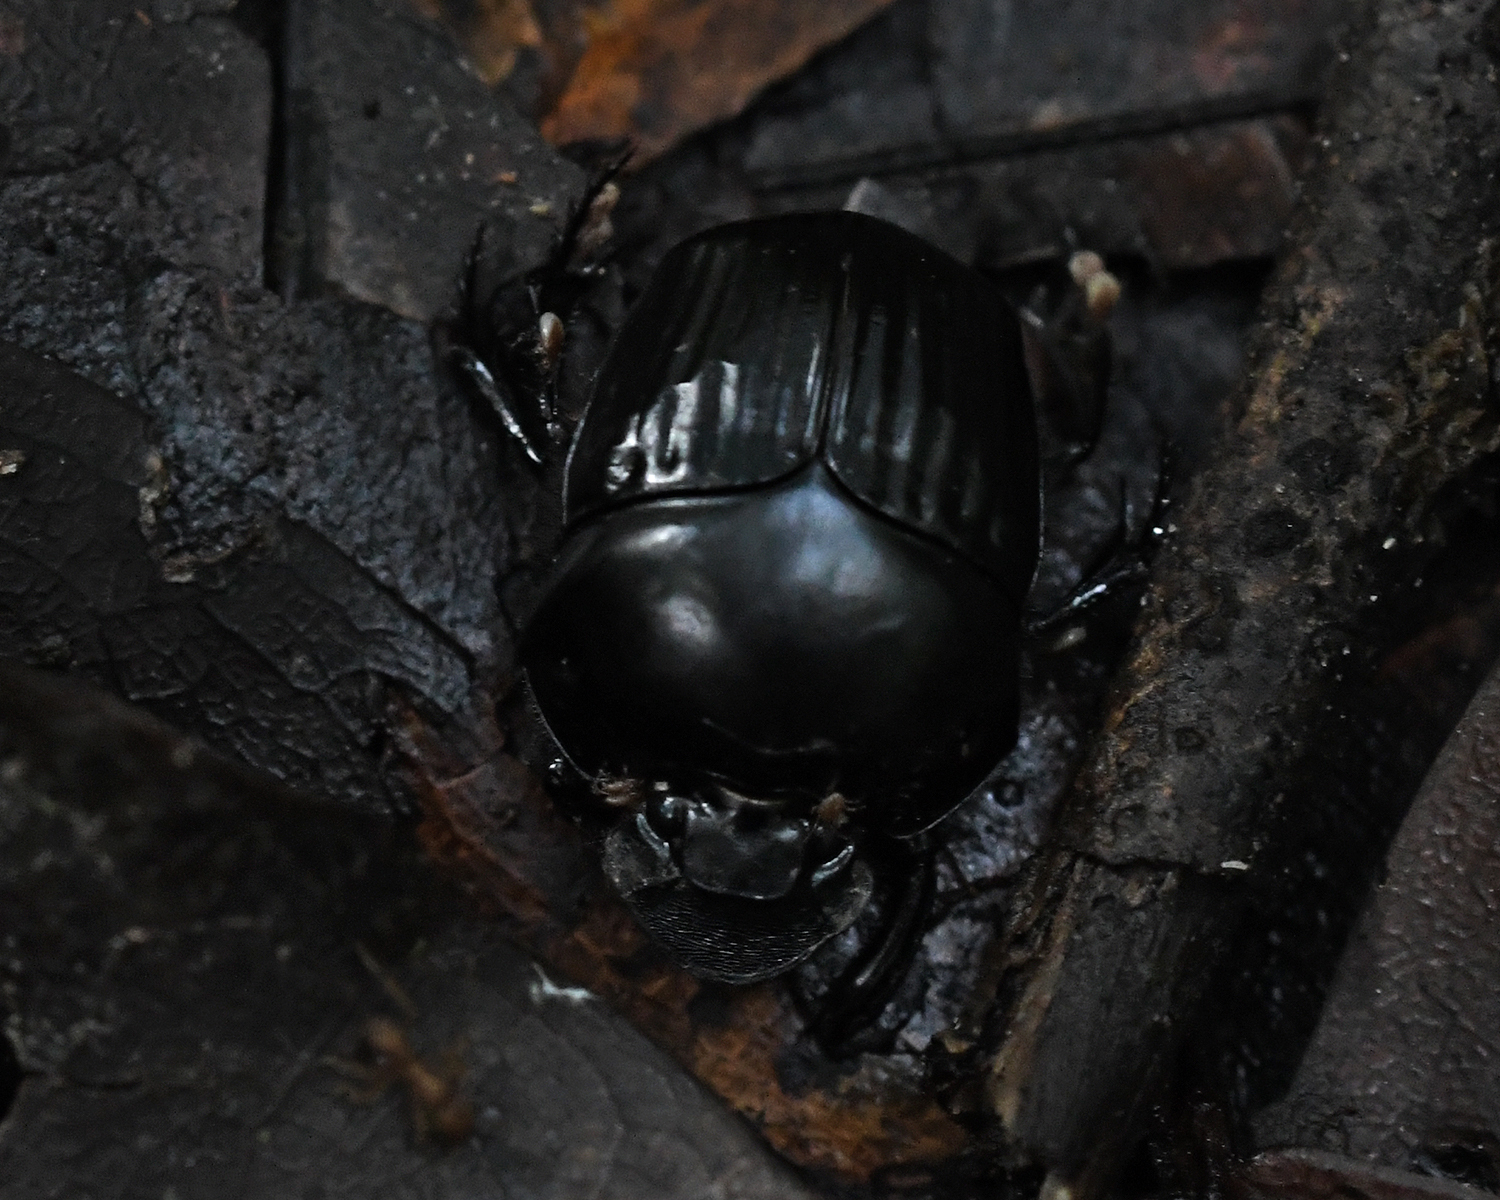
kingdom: Animalia
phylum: Arthropoda
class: Insecta
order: Coleoptera
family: Scarabaeidae
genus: Oxysternon
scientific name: Oxysternon festivum
